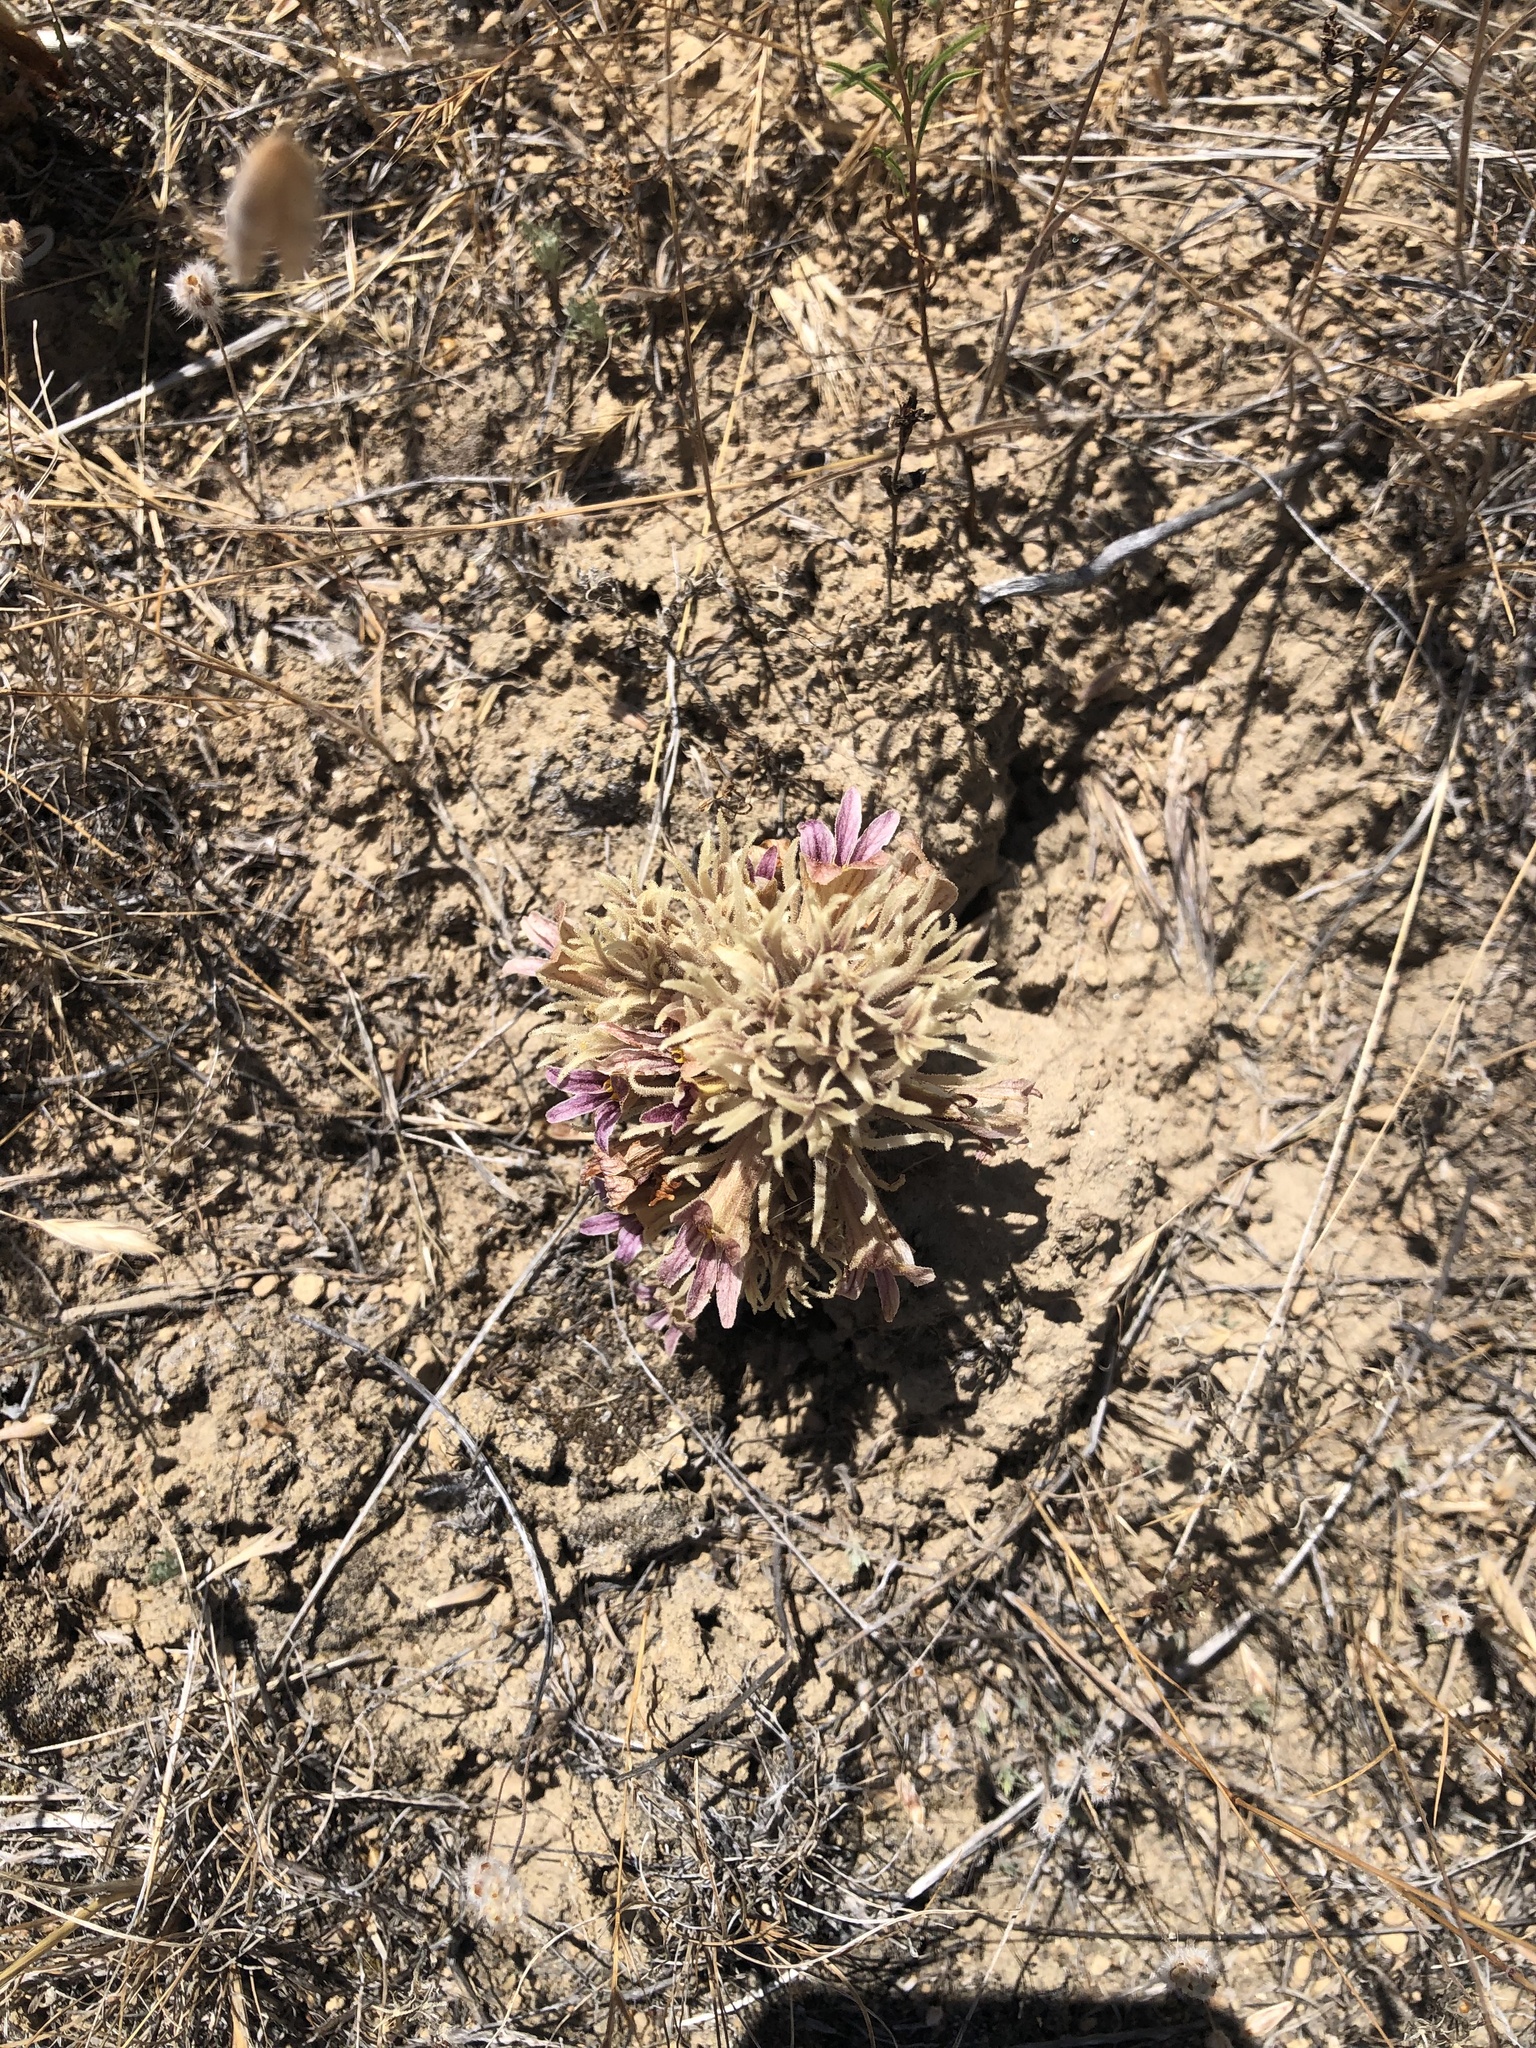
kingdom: Plantae
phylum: Tracheophyta
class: Magnoliopsida
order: Lamiales
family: Orobanchaceae
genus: Aphyllon
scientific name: Aphyllon corymbosum
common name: Flat-top broomrape
